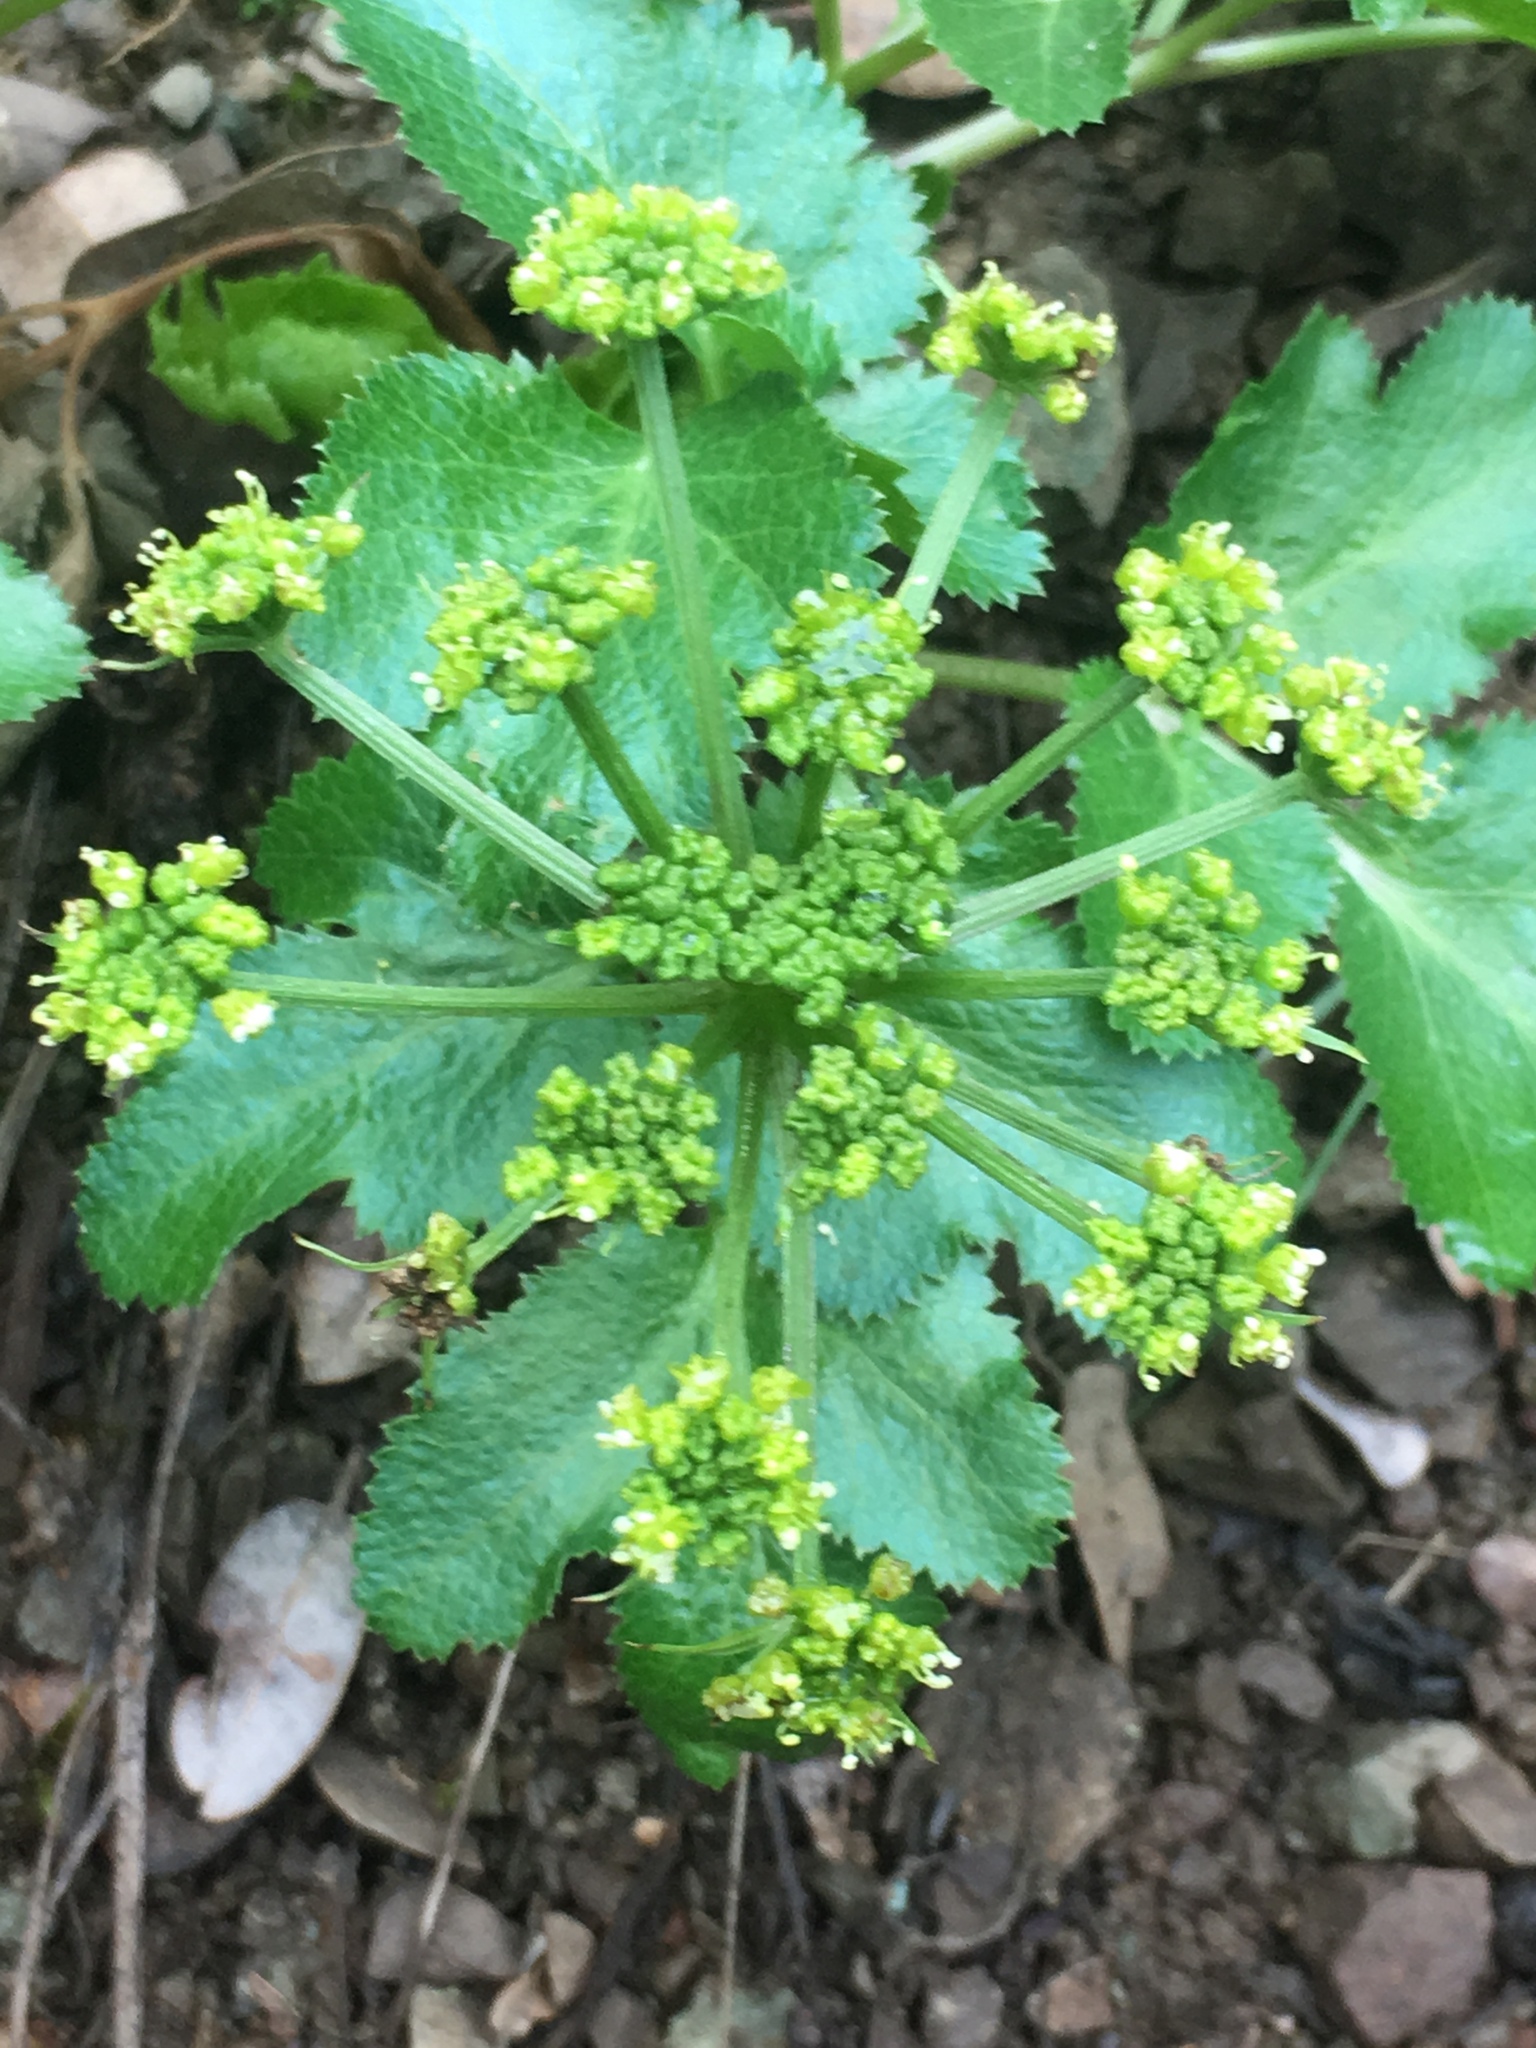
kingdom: Plantae
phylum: Tracheophyta
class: Magnoliopsida
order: Apiales
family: Apiaceae
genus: Tauschia
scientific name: Tauschia hartwegii
